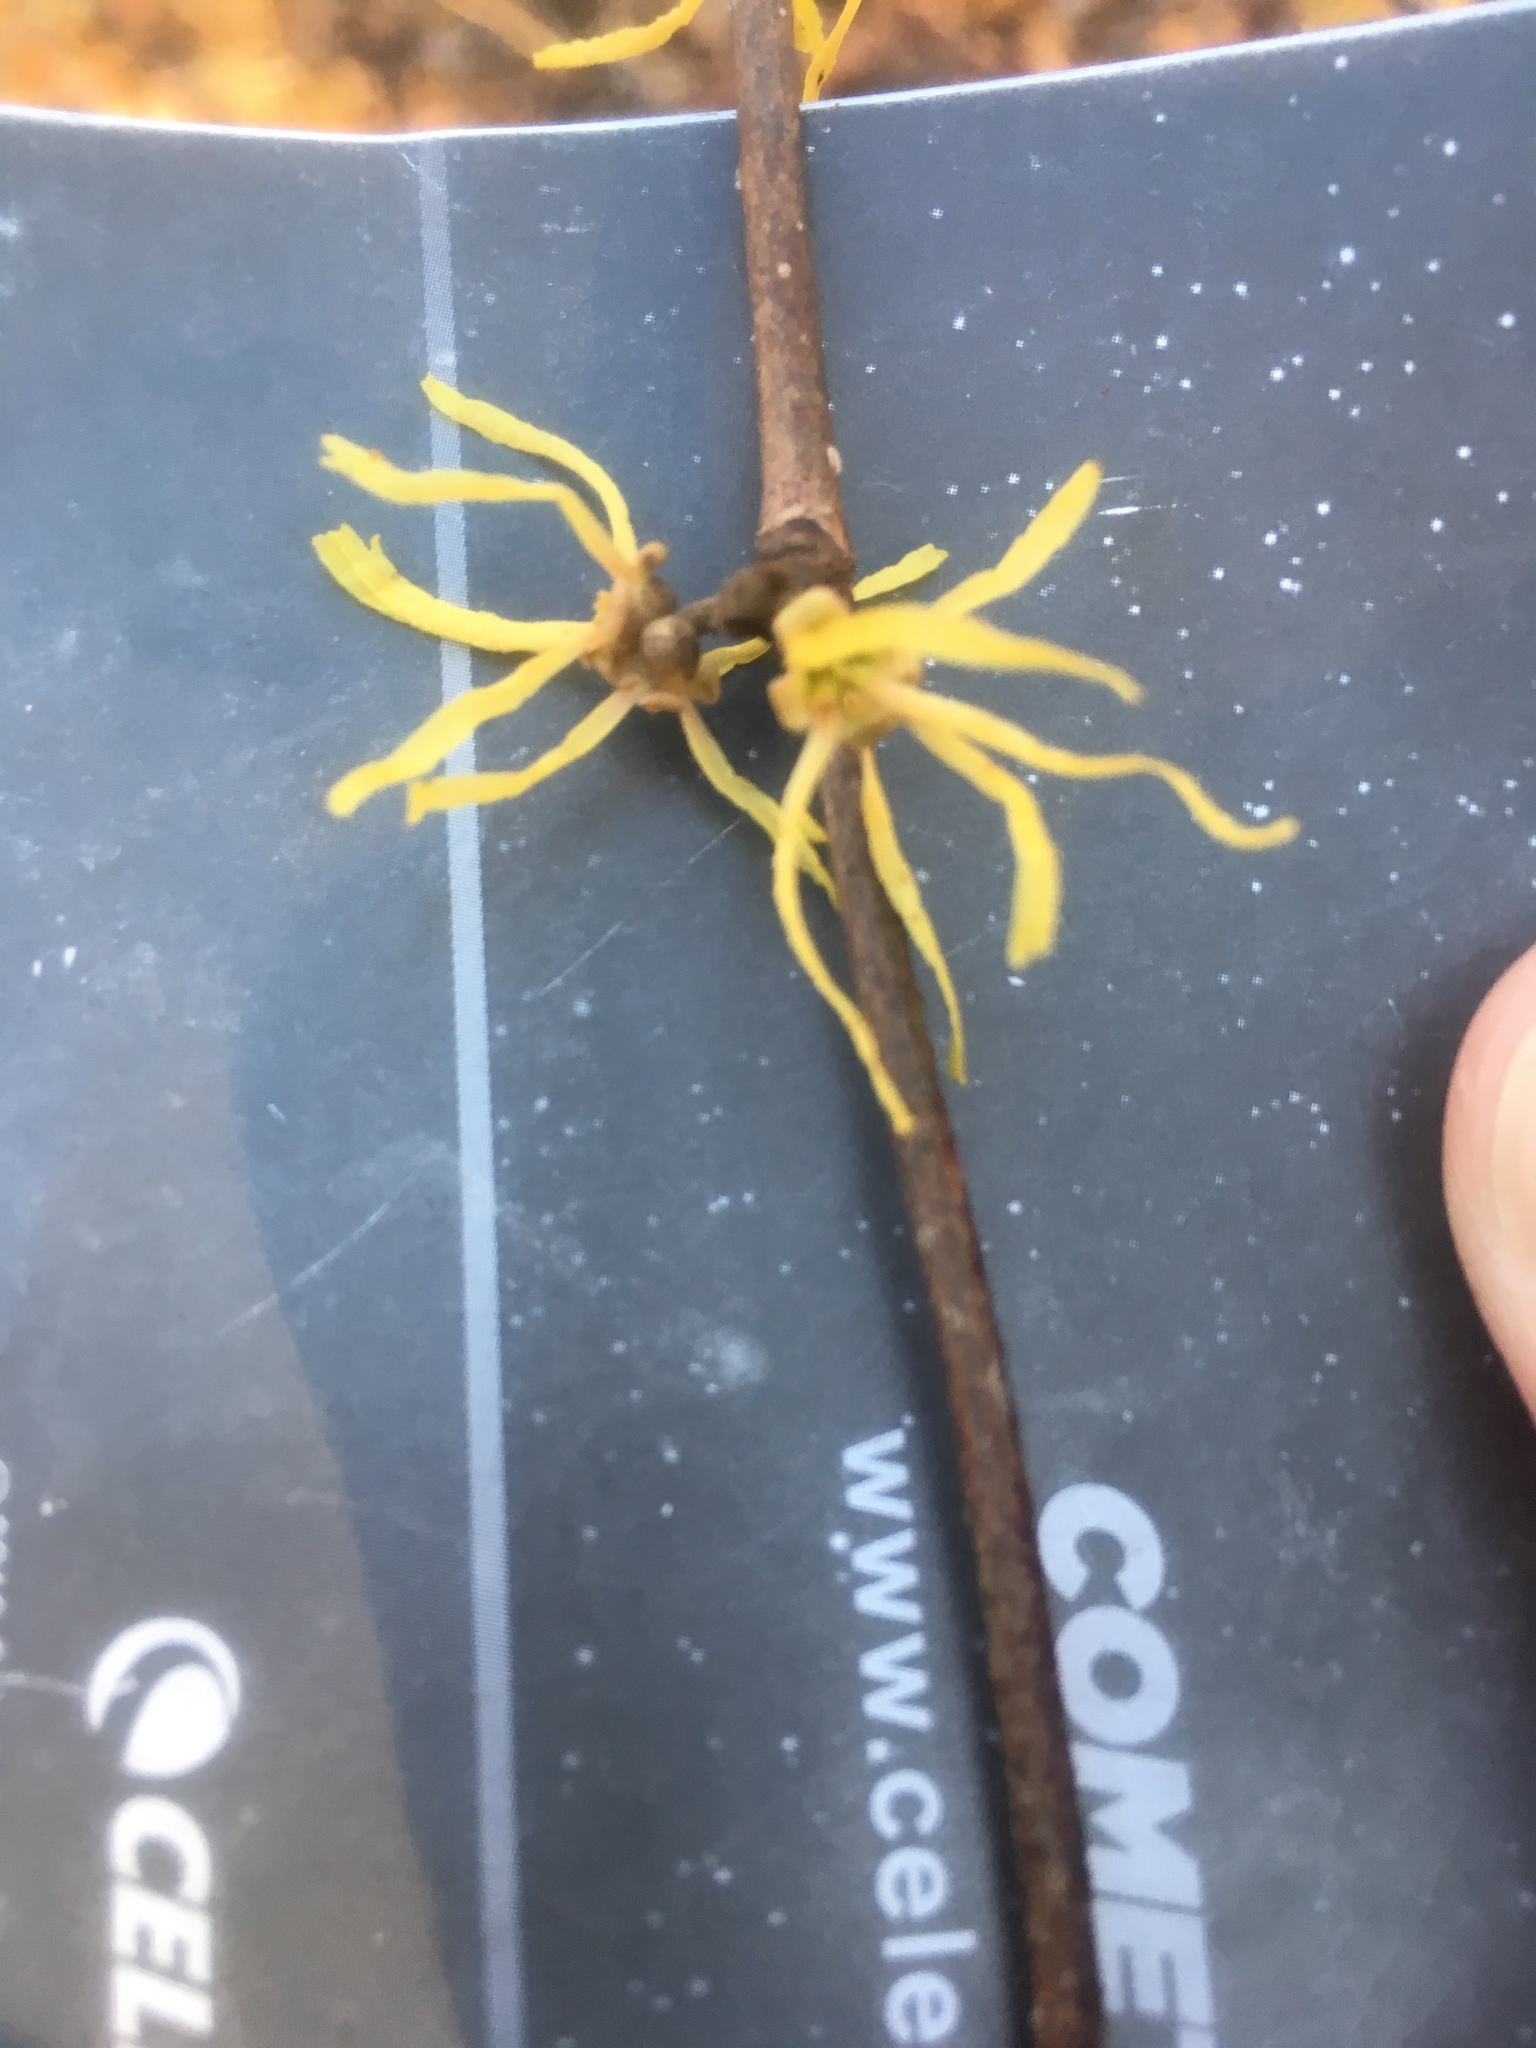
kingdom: Plantae
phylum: Tracheophyta
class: Magnoliopsida
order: Saxifragales
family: Hamamelidaceae
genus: Hamamelis
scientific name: Hamamelis virginiana
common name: Witch-hazel
